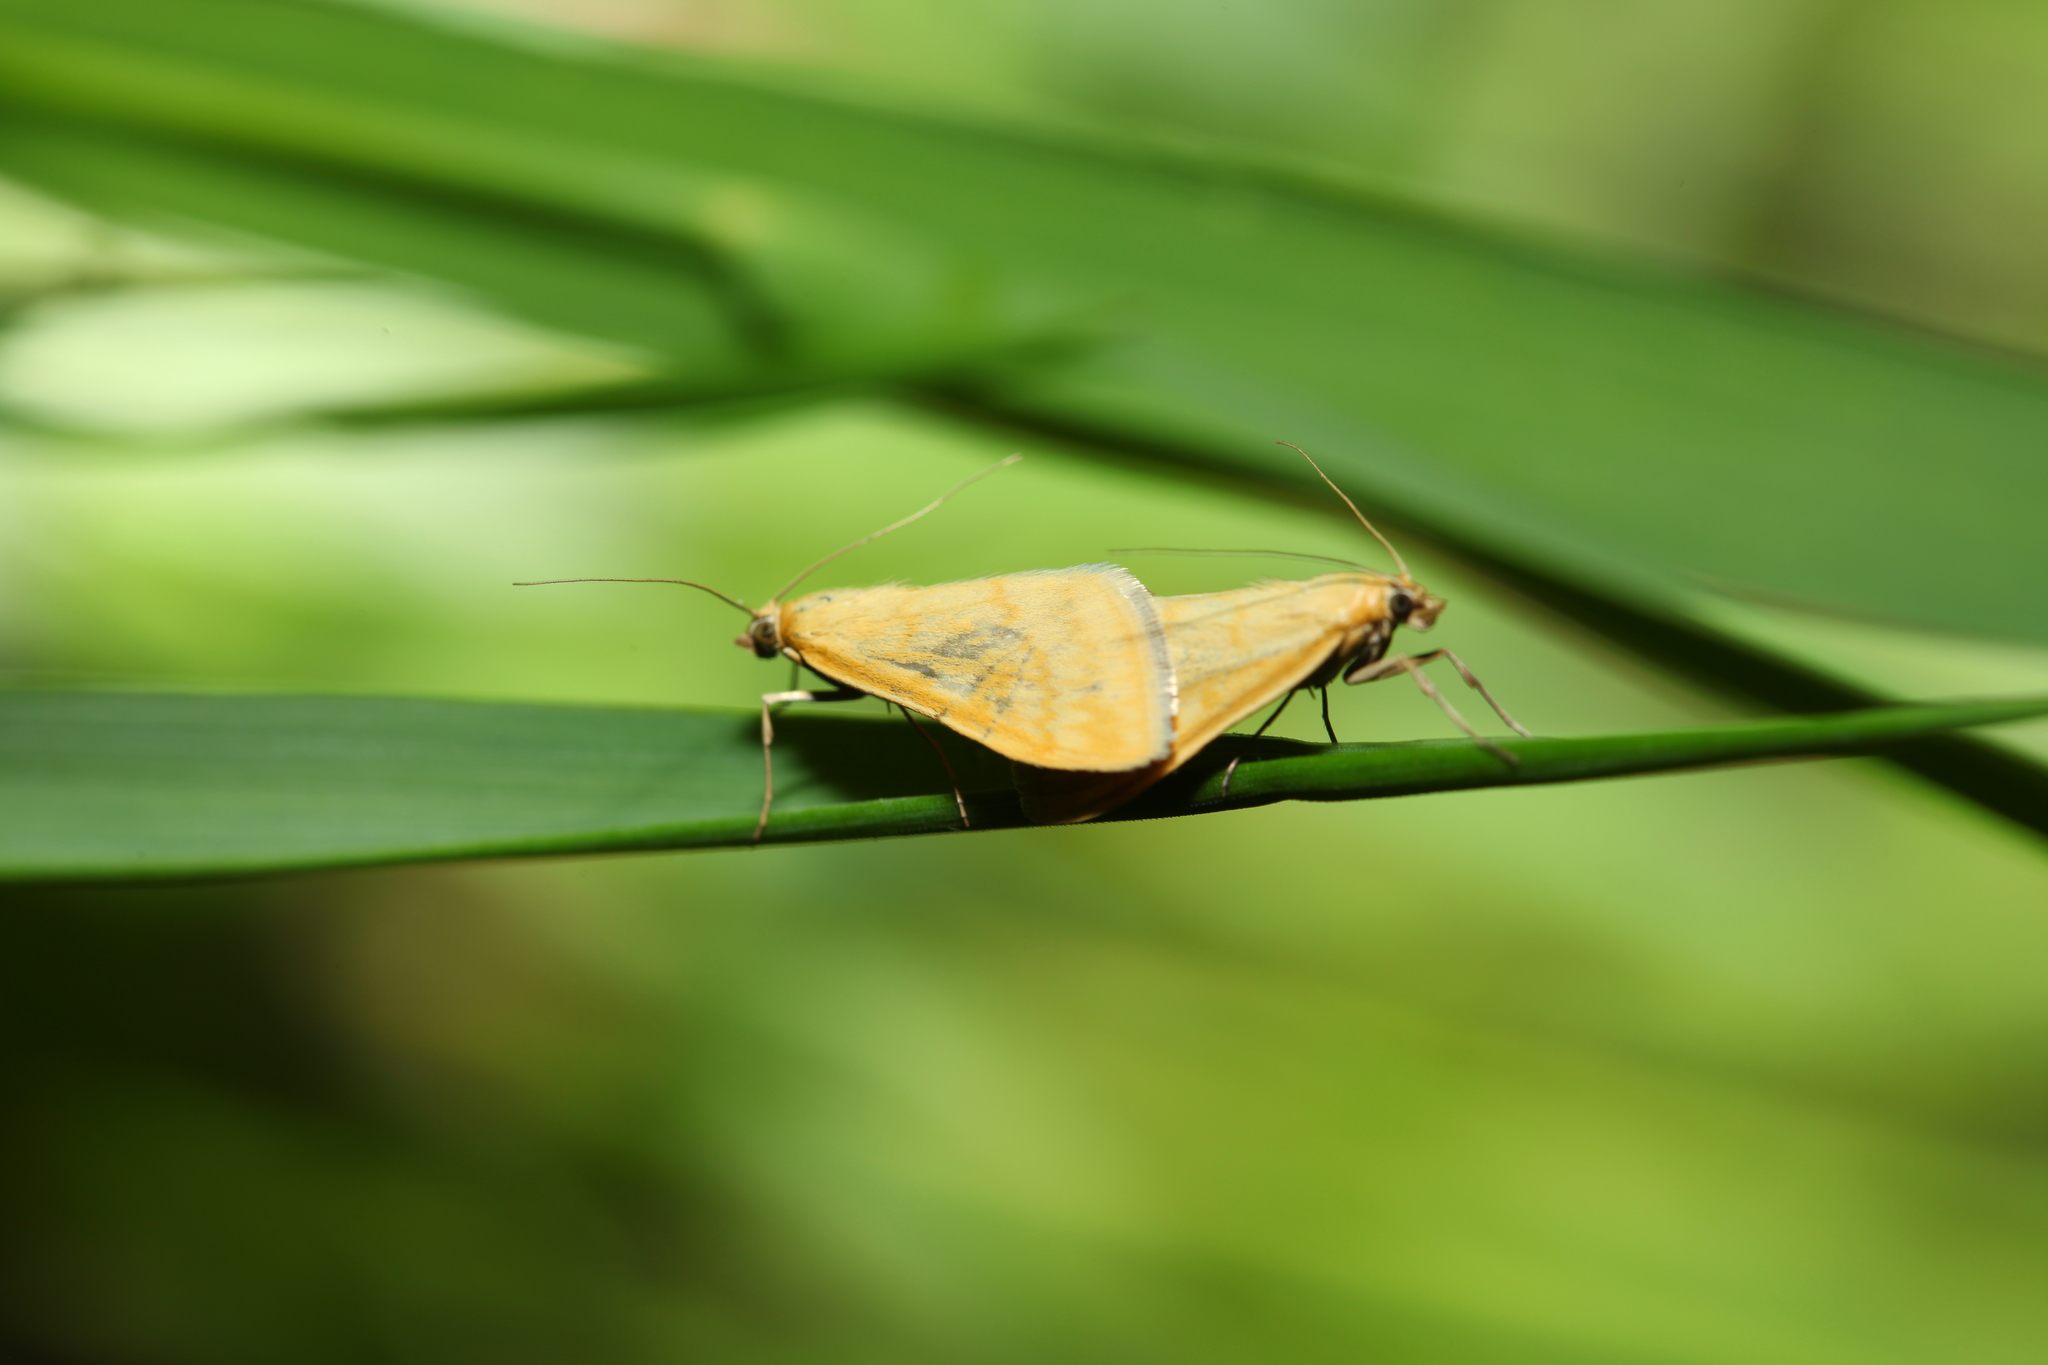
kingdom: Animalia
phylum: Arthropoda
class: Insecta
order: Lepidoptera
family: Crambidae
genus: Sitochroa
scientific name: Sitochroa verticalis
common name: Lesser pearl
